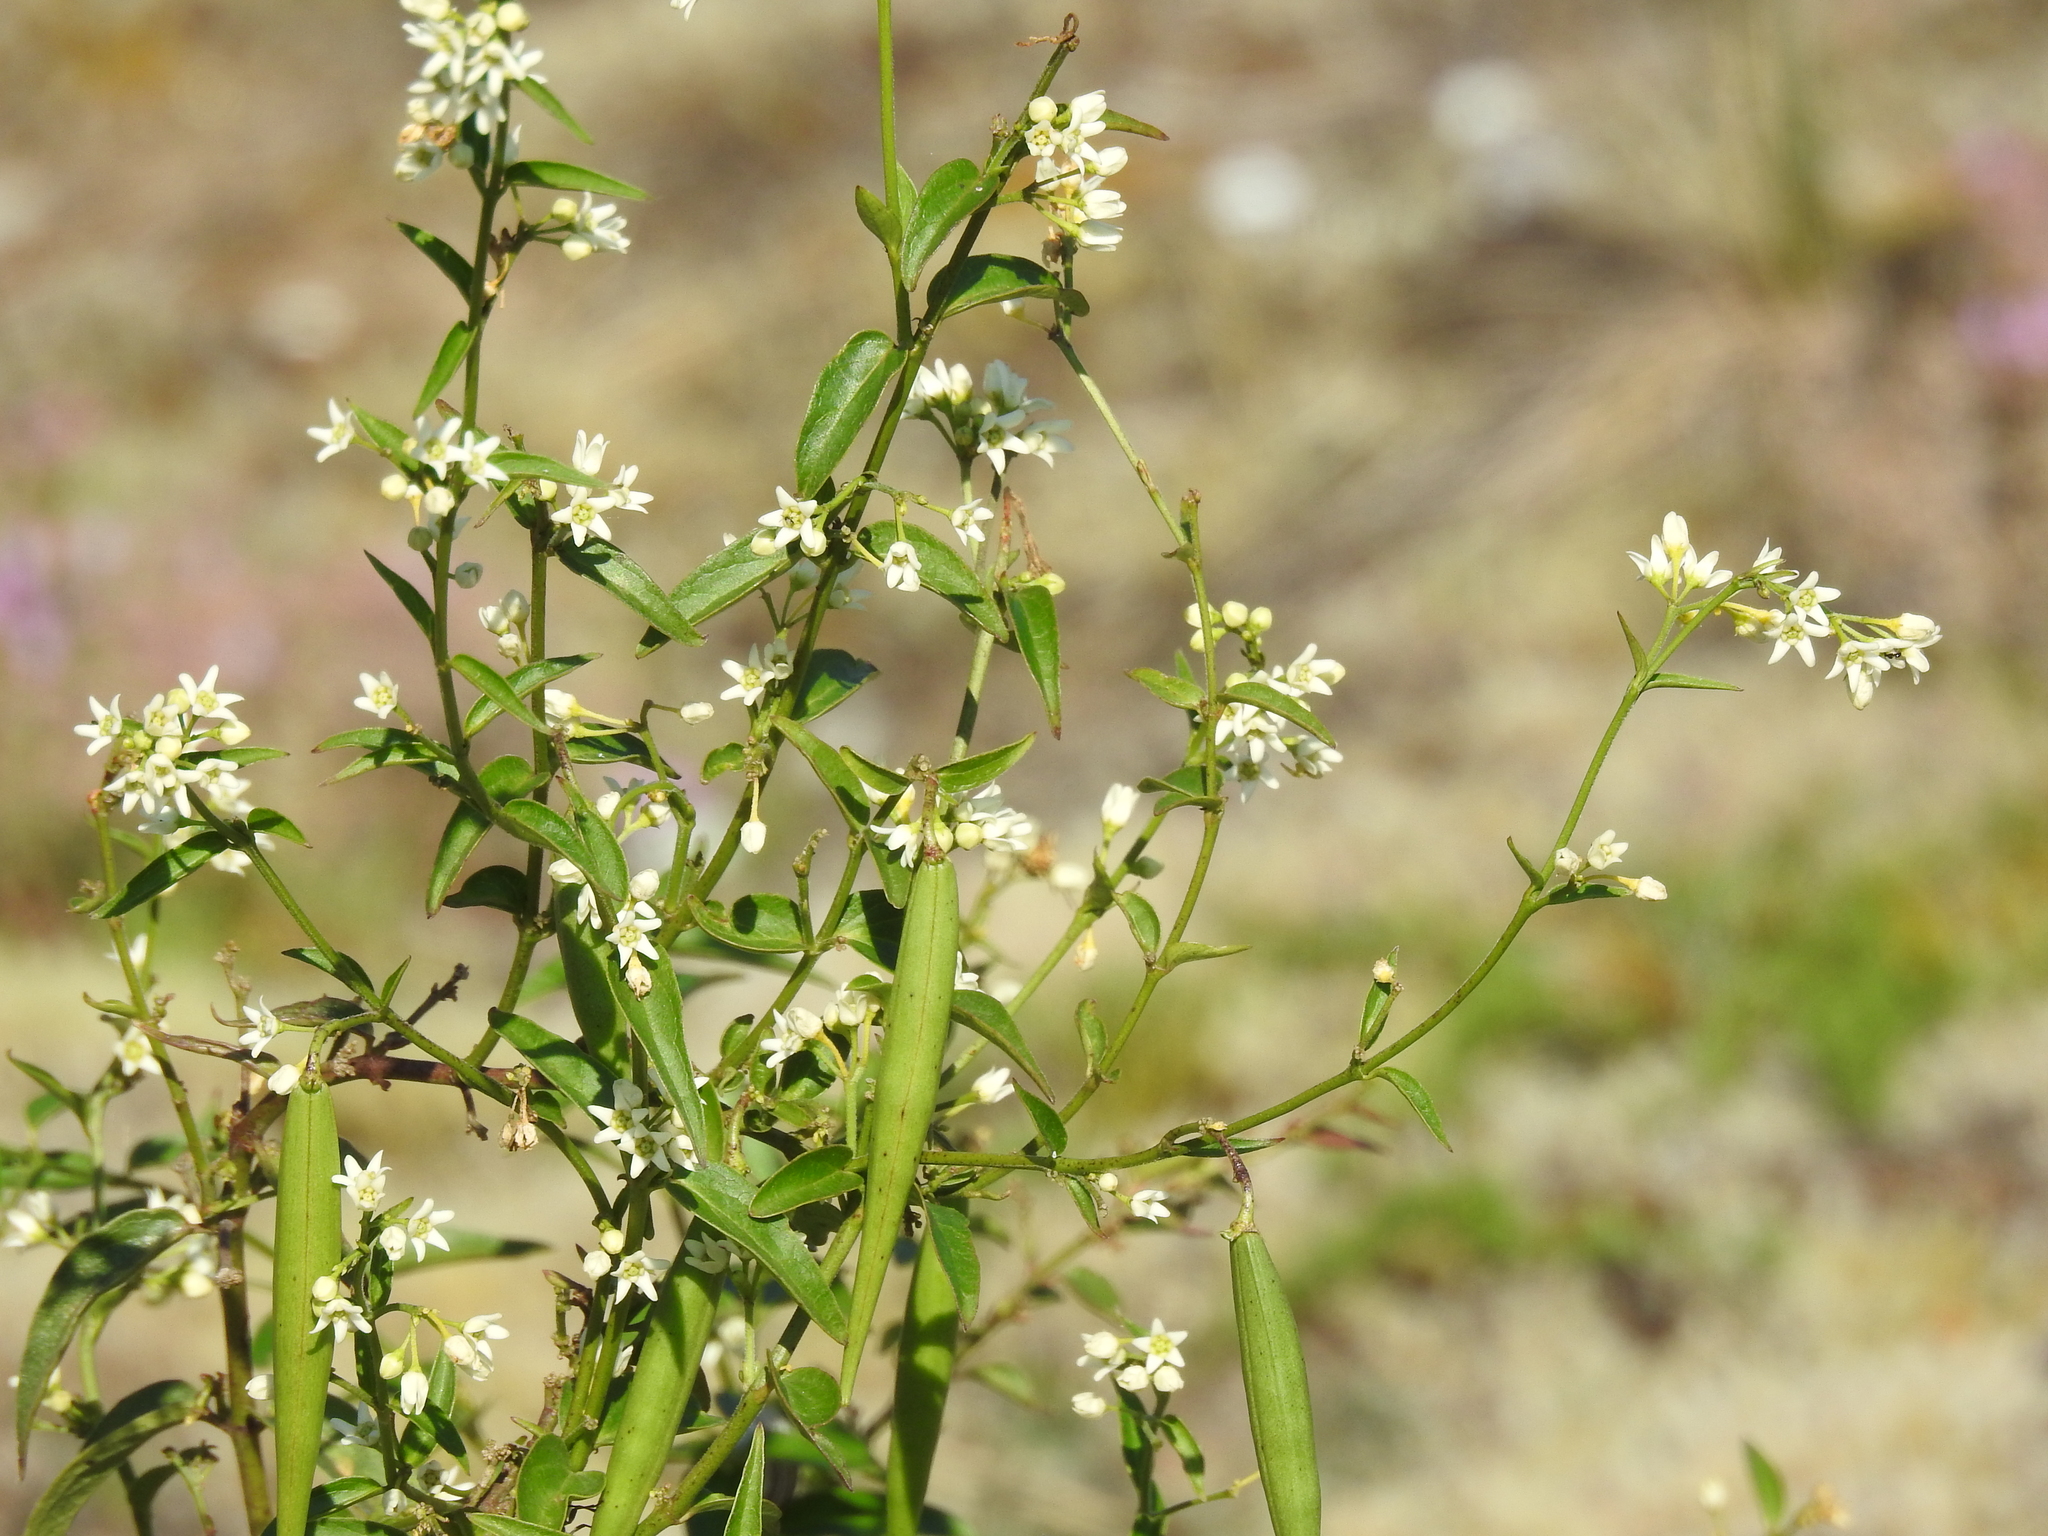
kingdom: Plantae
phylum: Tracheophyta
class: Magnoliopsida
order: Gentianales
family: Apocynaceae
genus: Vincetoxicum
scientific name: Vincetoxicum hirundinaria
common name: White swallowwort
